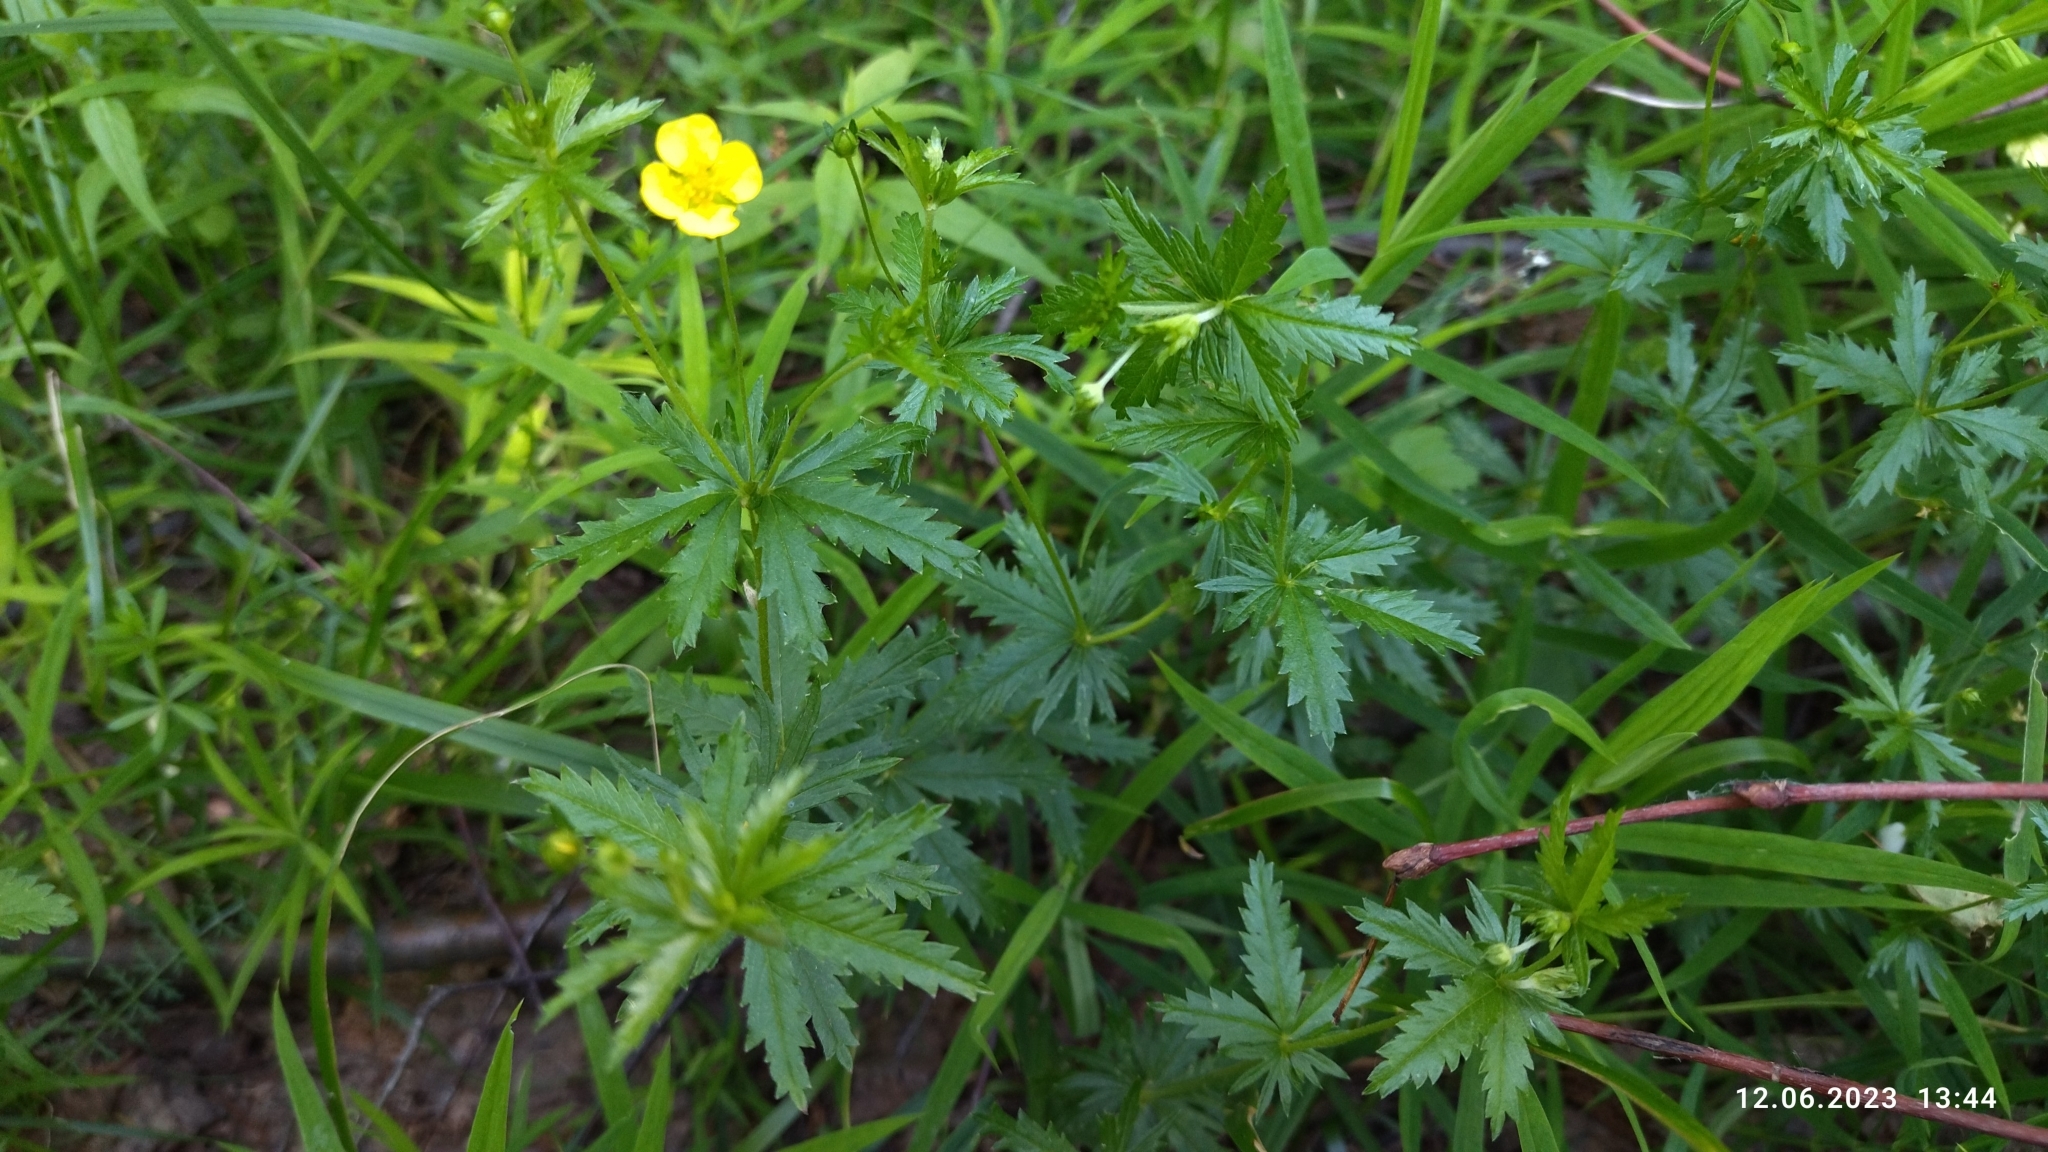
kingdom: Plantae
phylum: Tracheophyta
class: Magnoliopsida
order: Rosales
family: Rosaceae
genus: Potentilla
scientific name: Potentilla erecta
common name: Tormentil
